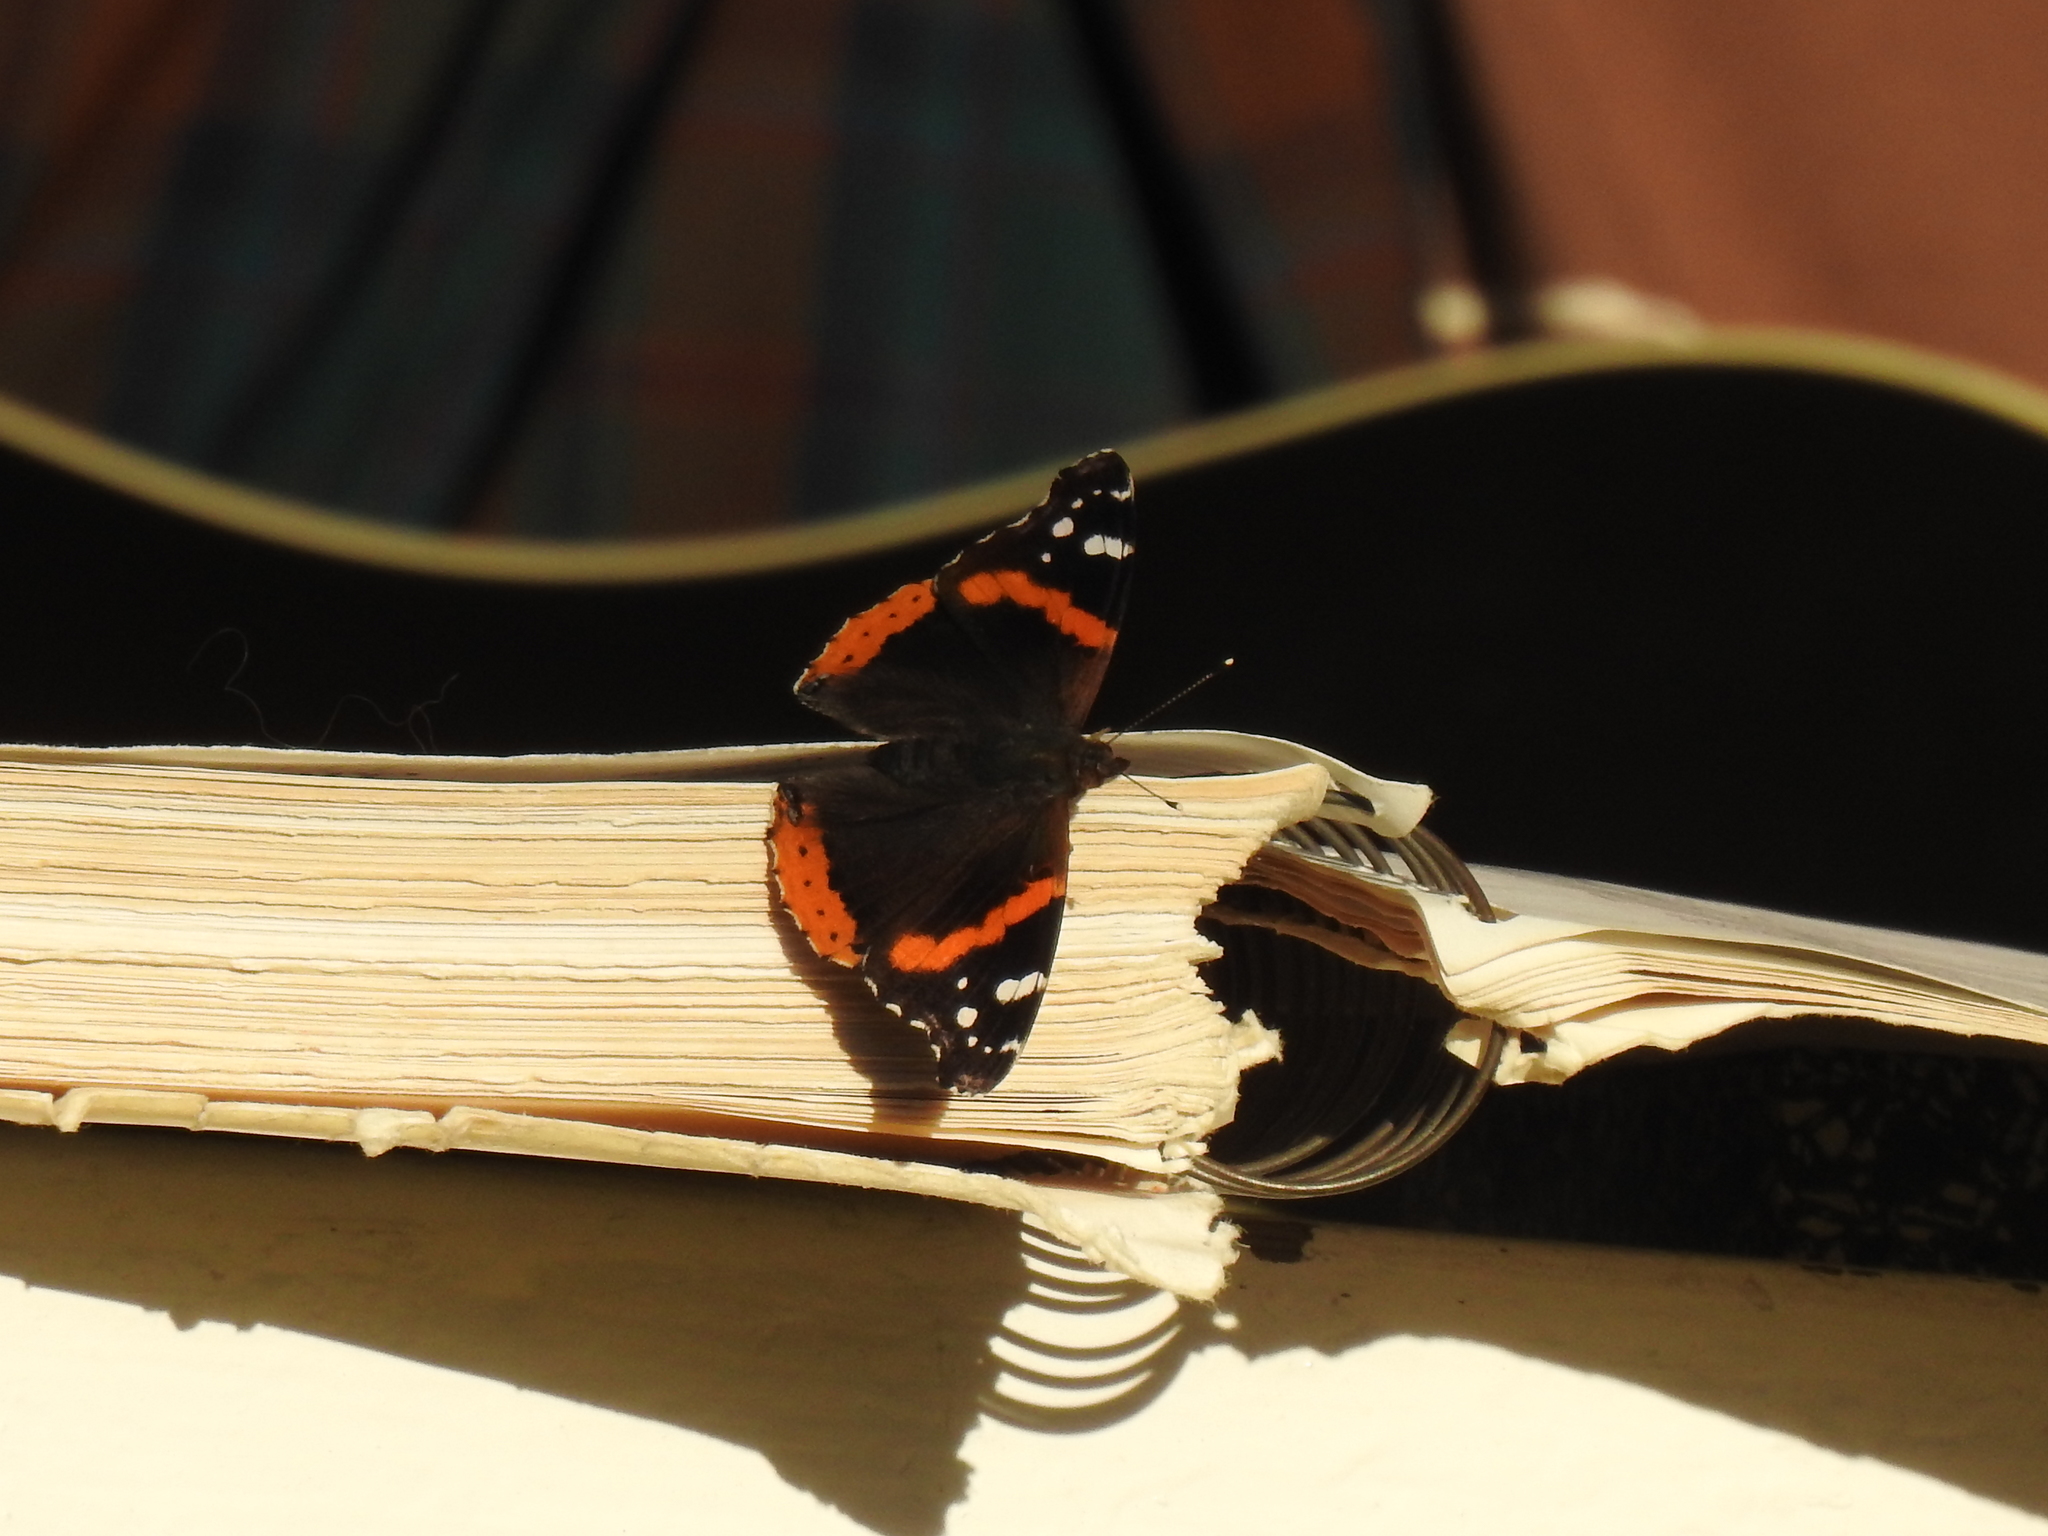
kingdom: Animalia
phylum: Arthropoda
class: Insecta
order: Lepidoptera
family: Nymphalidae
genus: Vanessa
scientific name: Vanessa atalanta
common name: Red admiral
